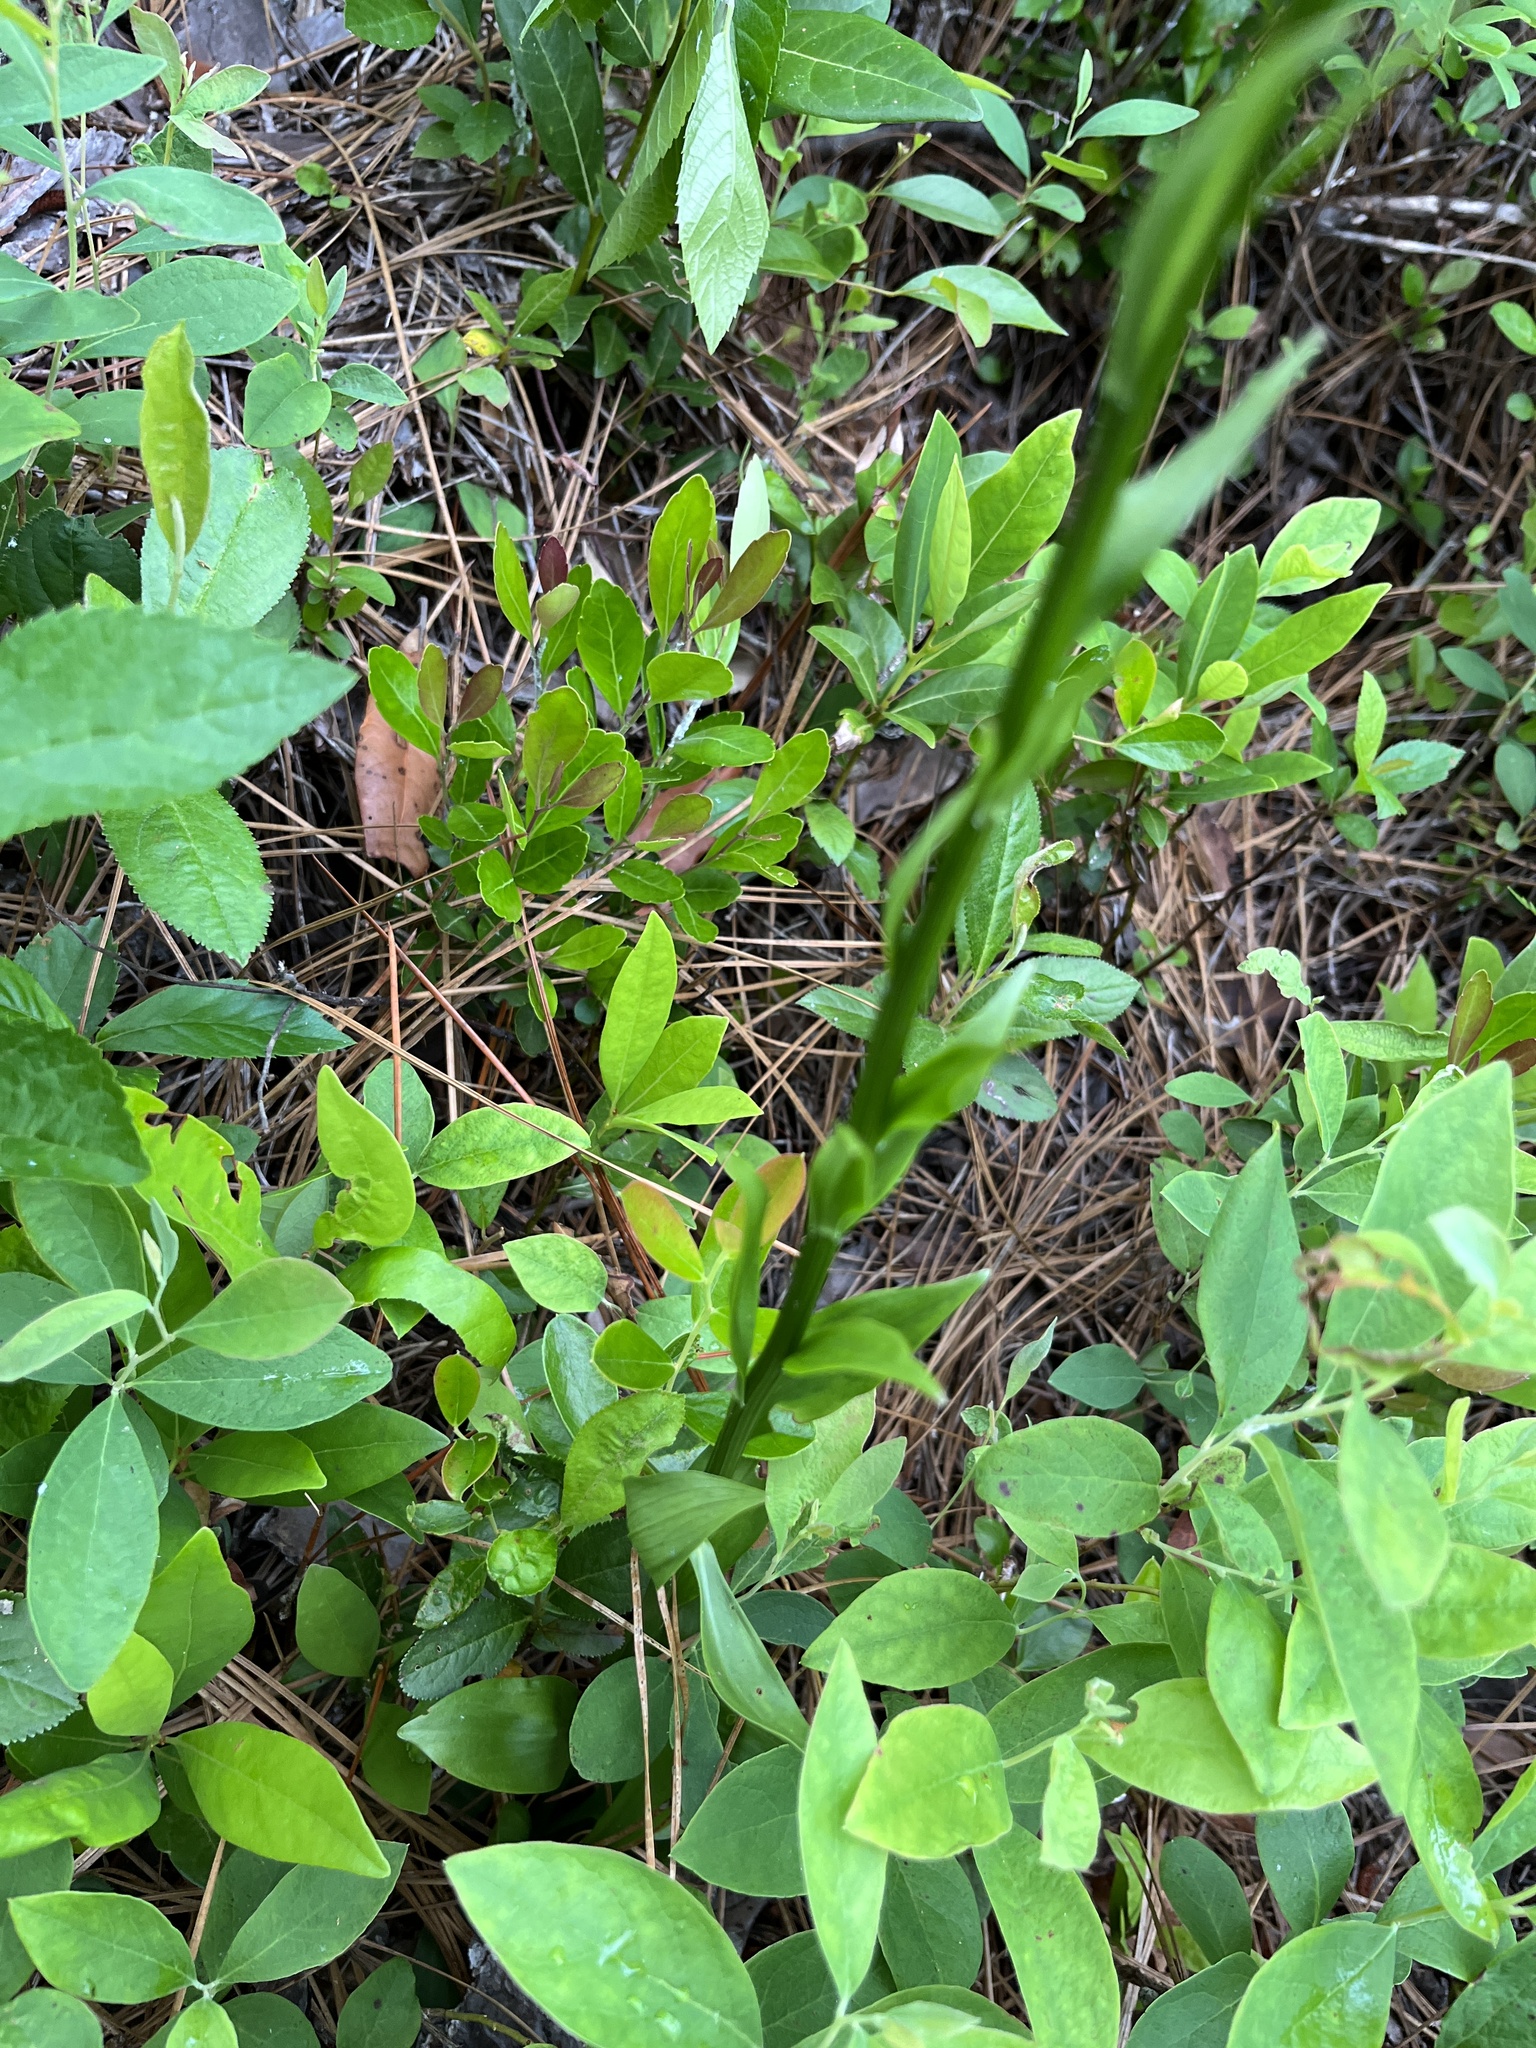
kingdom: Plantae
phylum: Tracheophyta
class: Liliopsida
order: Liliales
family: Melanthiaceae
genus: Chamaelirium
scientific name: Chamaelirium luteum
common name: Fairy-wand
